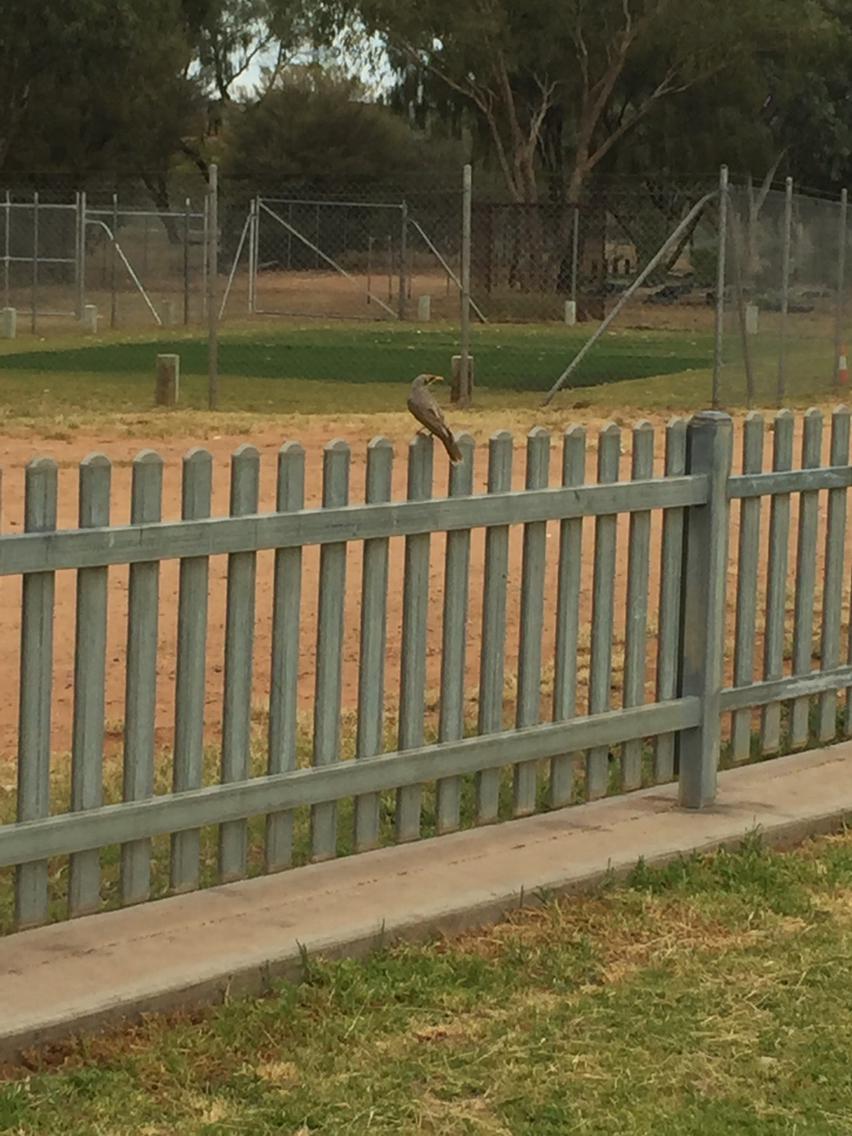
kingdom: Animalia
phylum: Chordata
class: Aves
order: Passeriformes
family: Meliphagidae
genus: Manorina
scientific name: Manorina flavigula
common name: Yellow-throated miner
